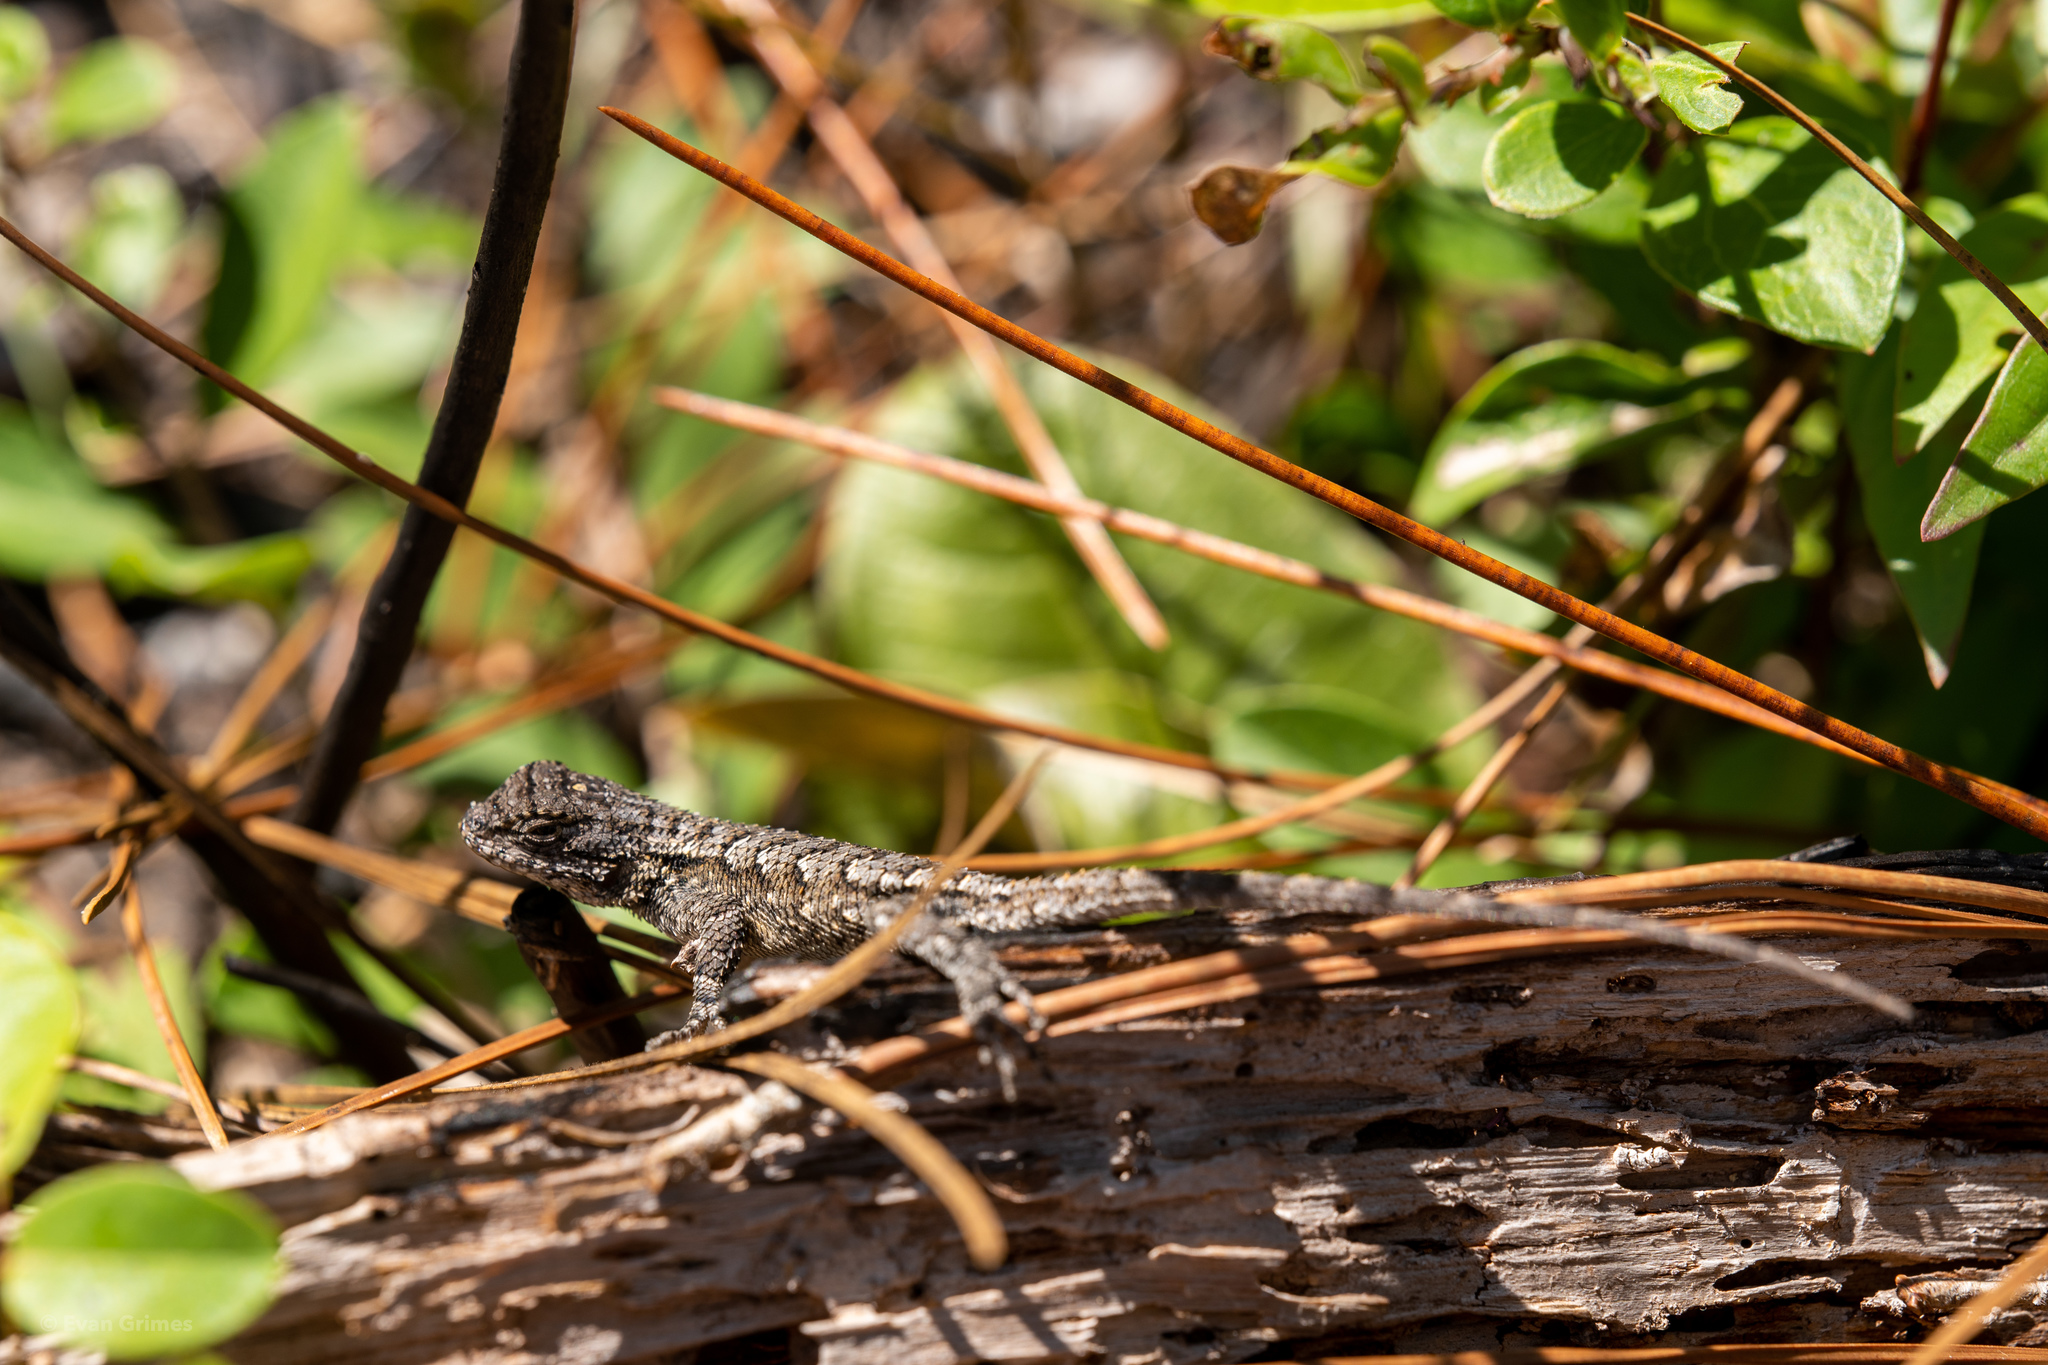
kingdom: Animalia
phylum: Chordata
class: Squamata
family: Phrynosomatidae
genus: Sceloporus
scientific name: Sceloporus undulatus
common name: Eastern fence lizard
